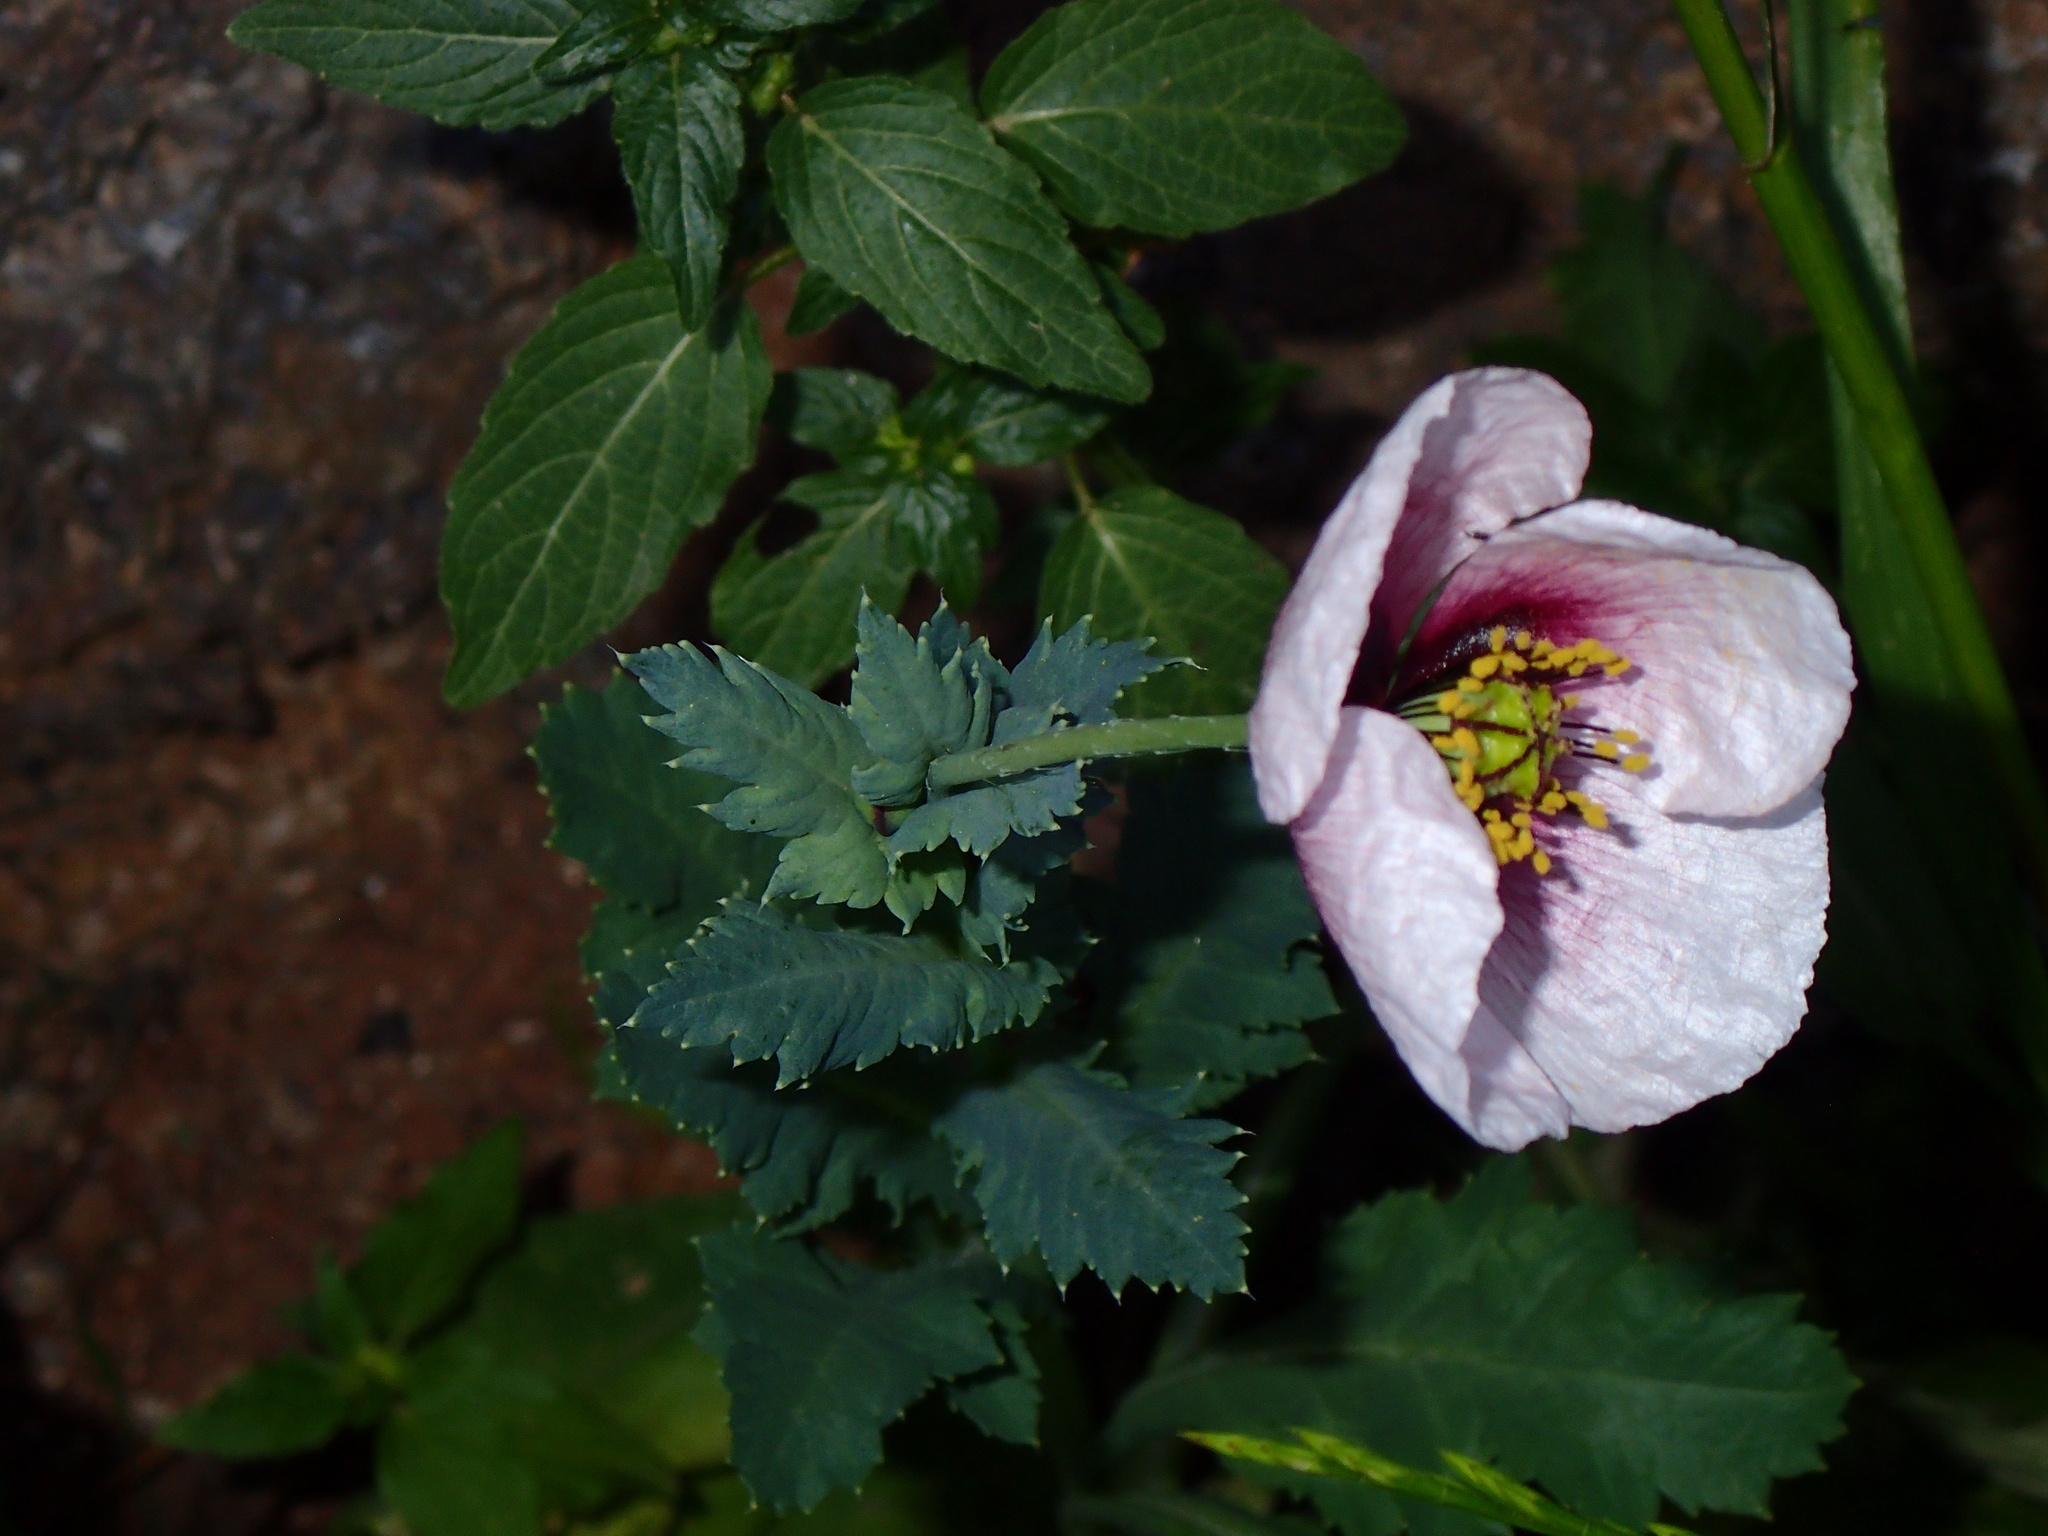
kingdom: Plantae
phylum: Tracheophyta
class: Magnoliopsida
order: Ranunculales
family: Papaveraceae
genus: Papaver
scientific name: Papaver somniferum
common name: Opium poppy
